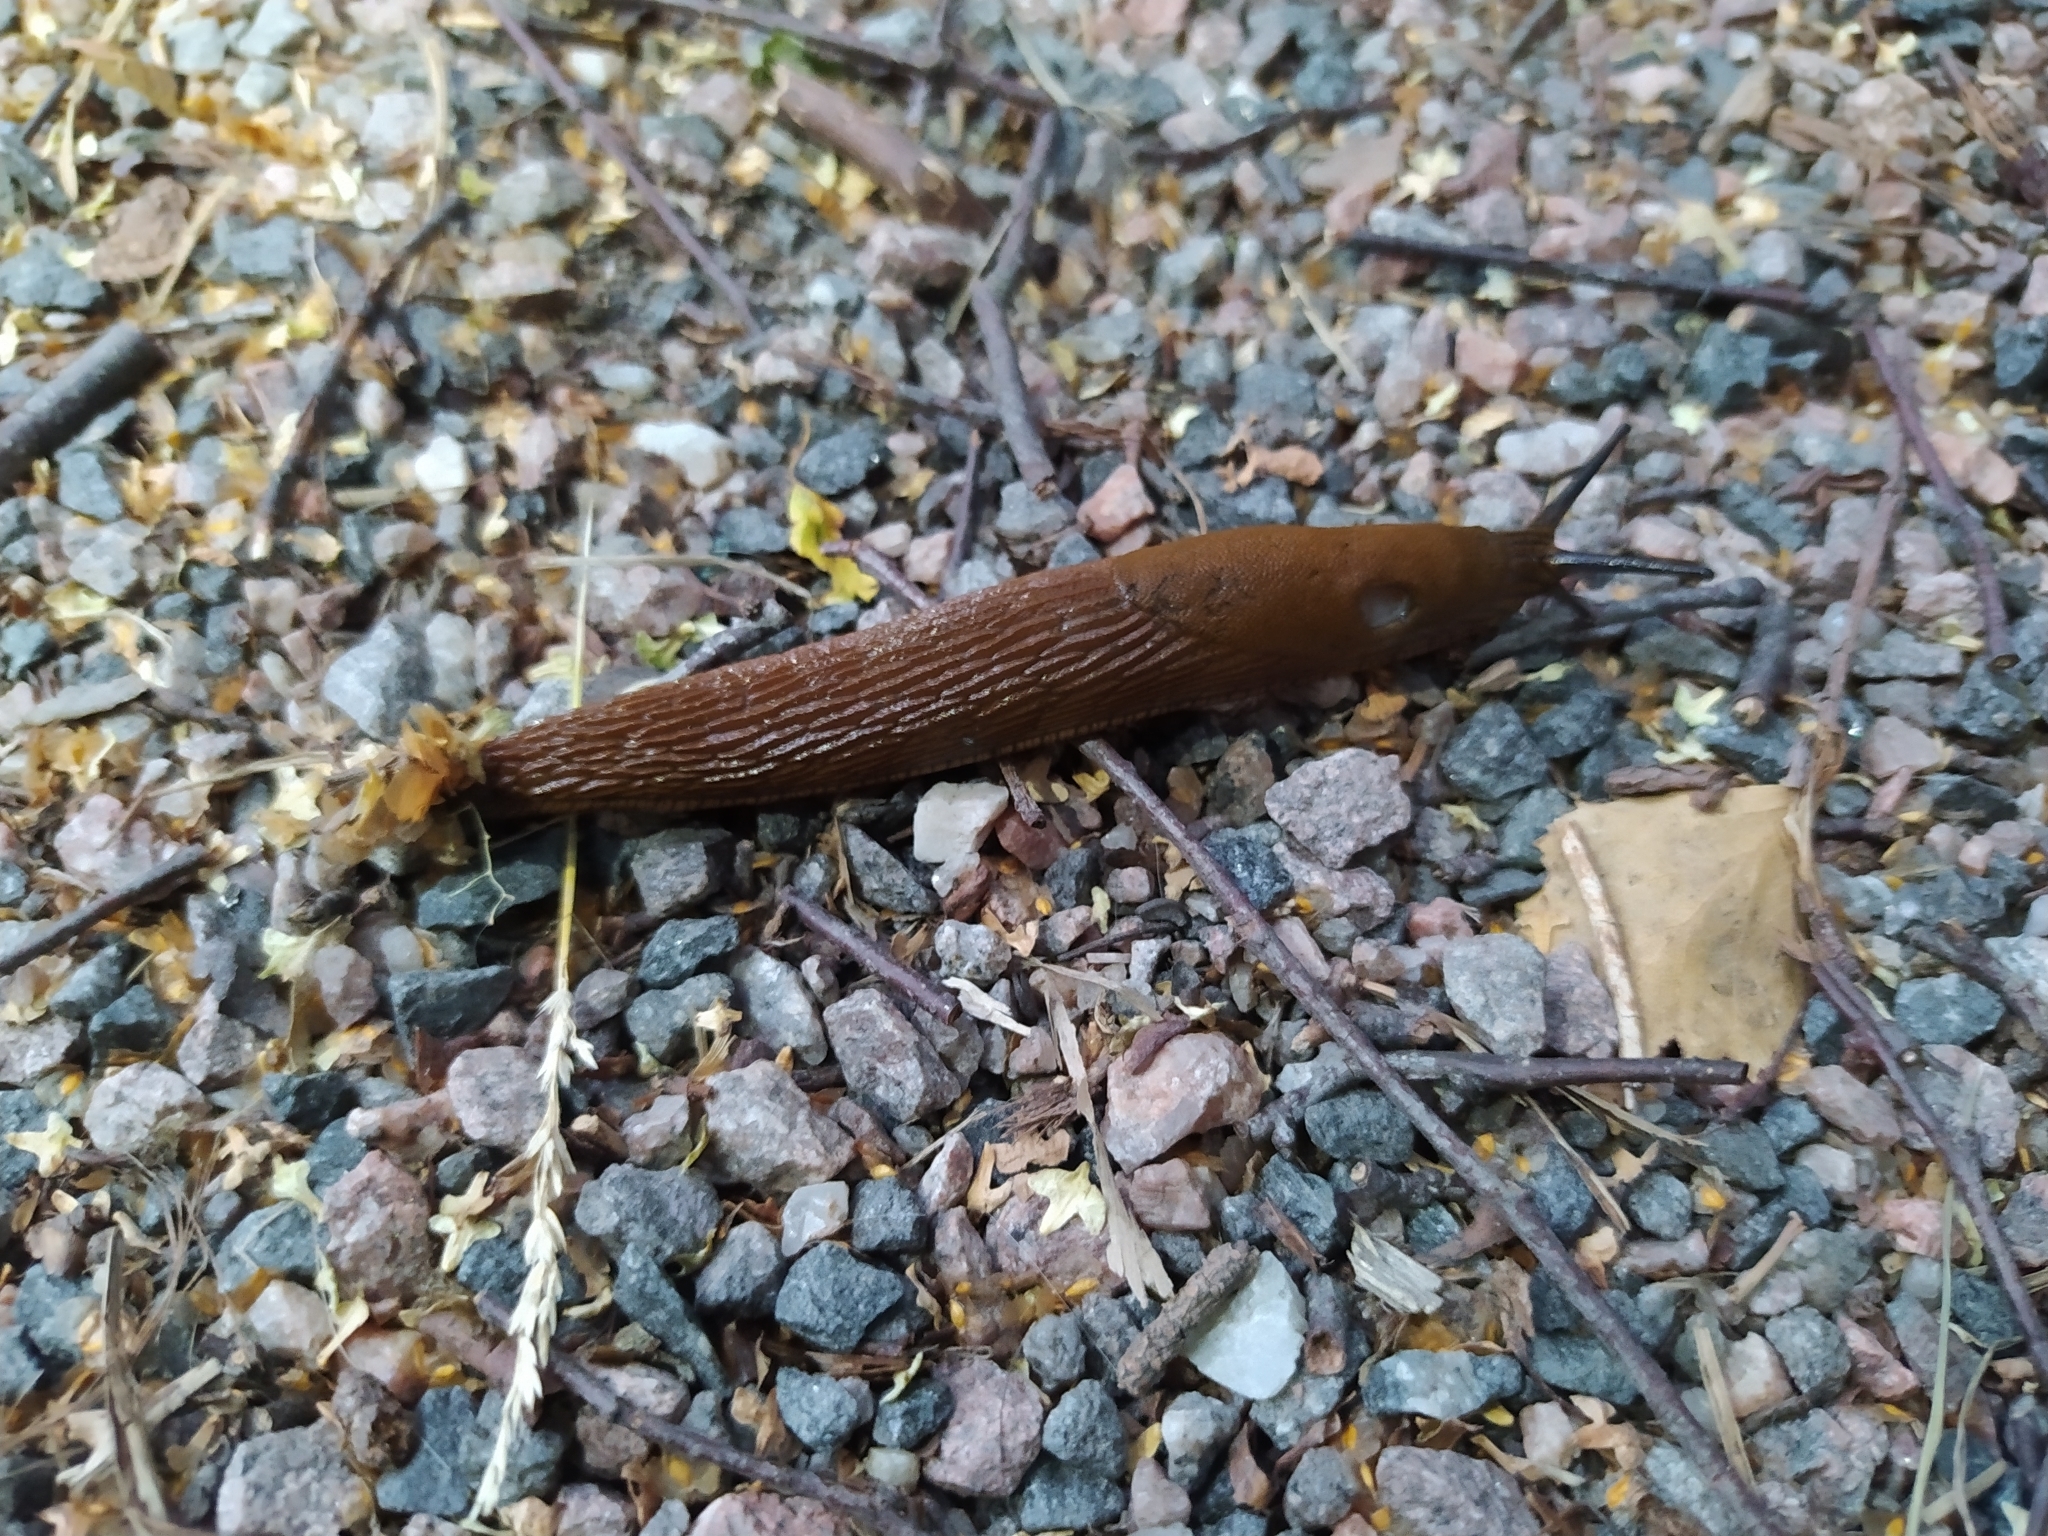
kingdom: Animalia
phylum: Mollusca
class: Gastropoda
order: Stylommatophora
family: Arionidae
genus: Arion
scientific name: Arion vulgaris
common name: Lusitanian slug
